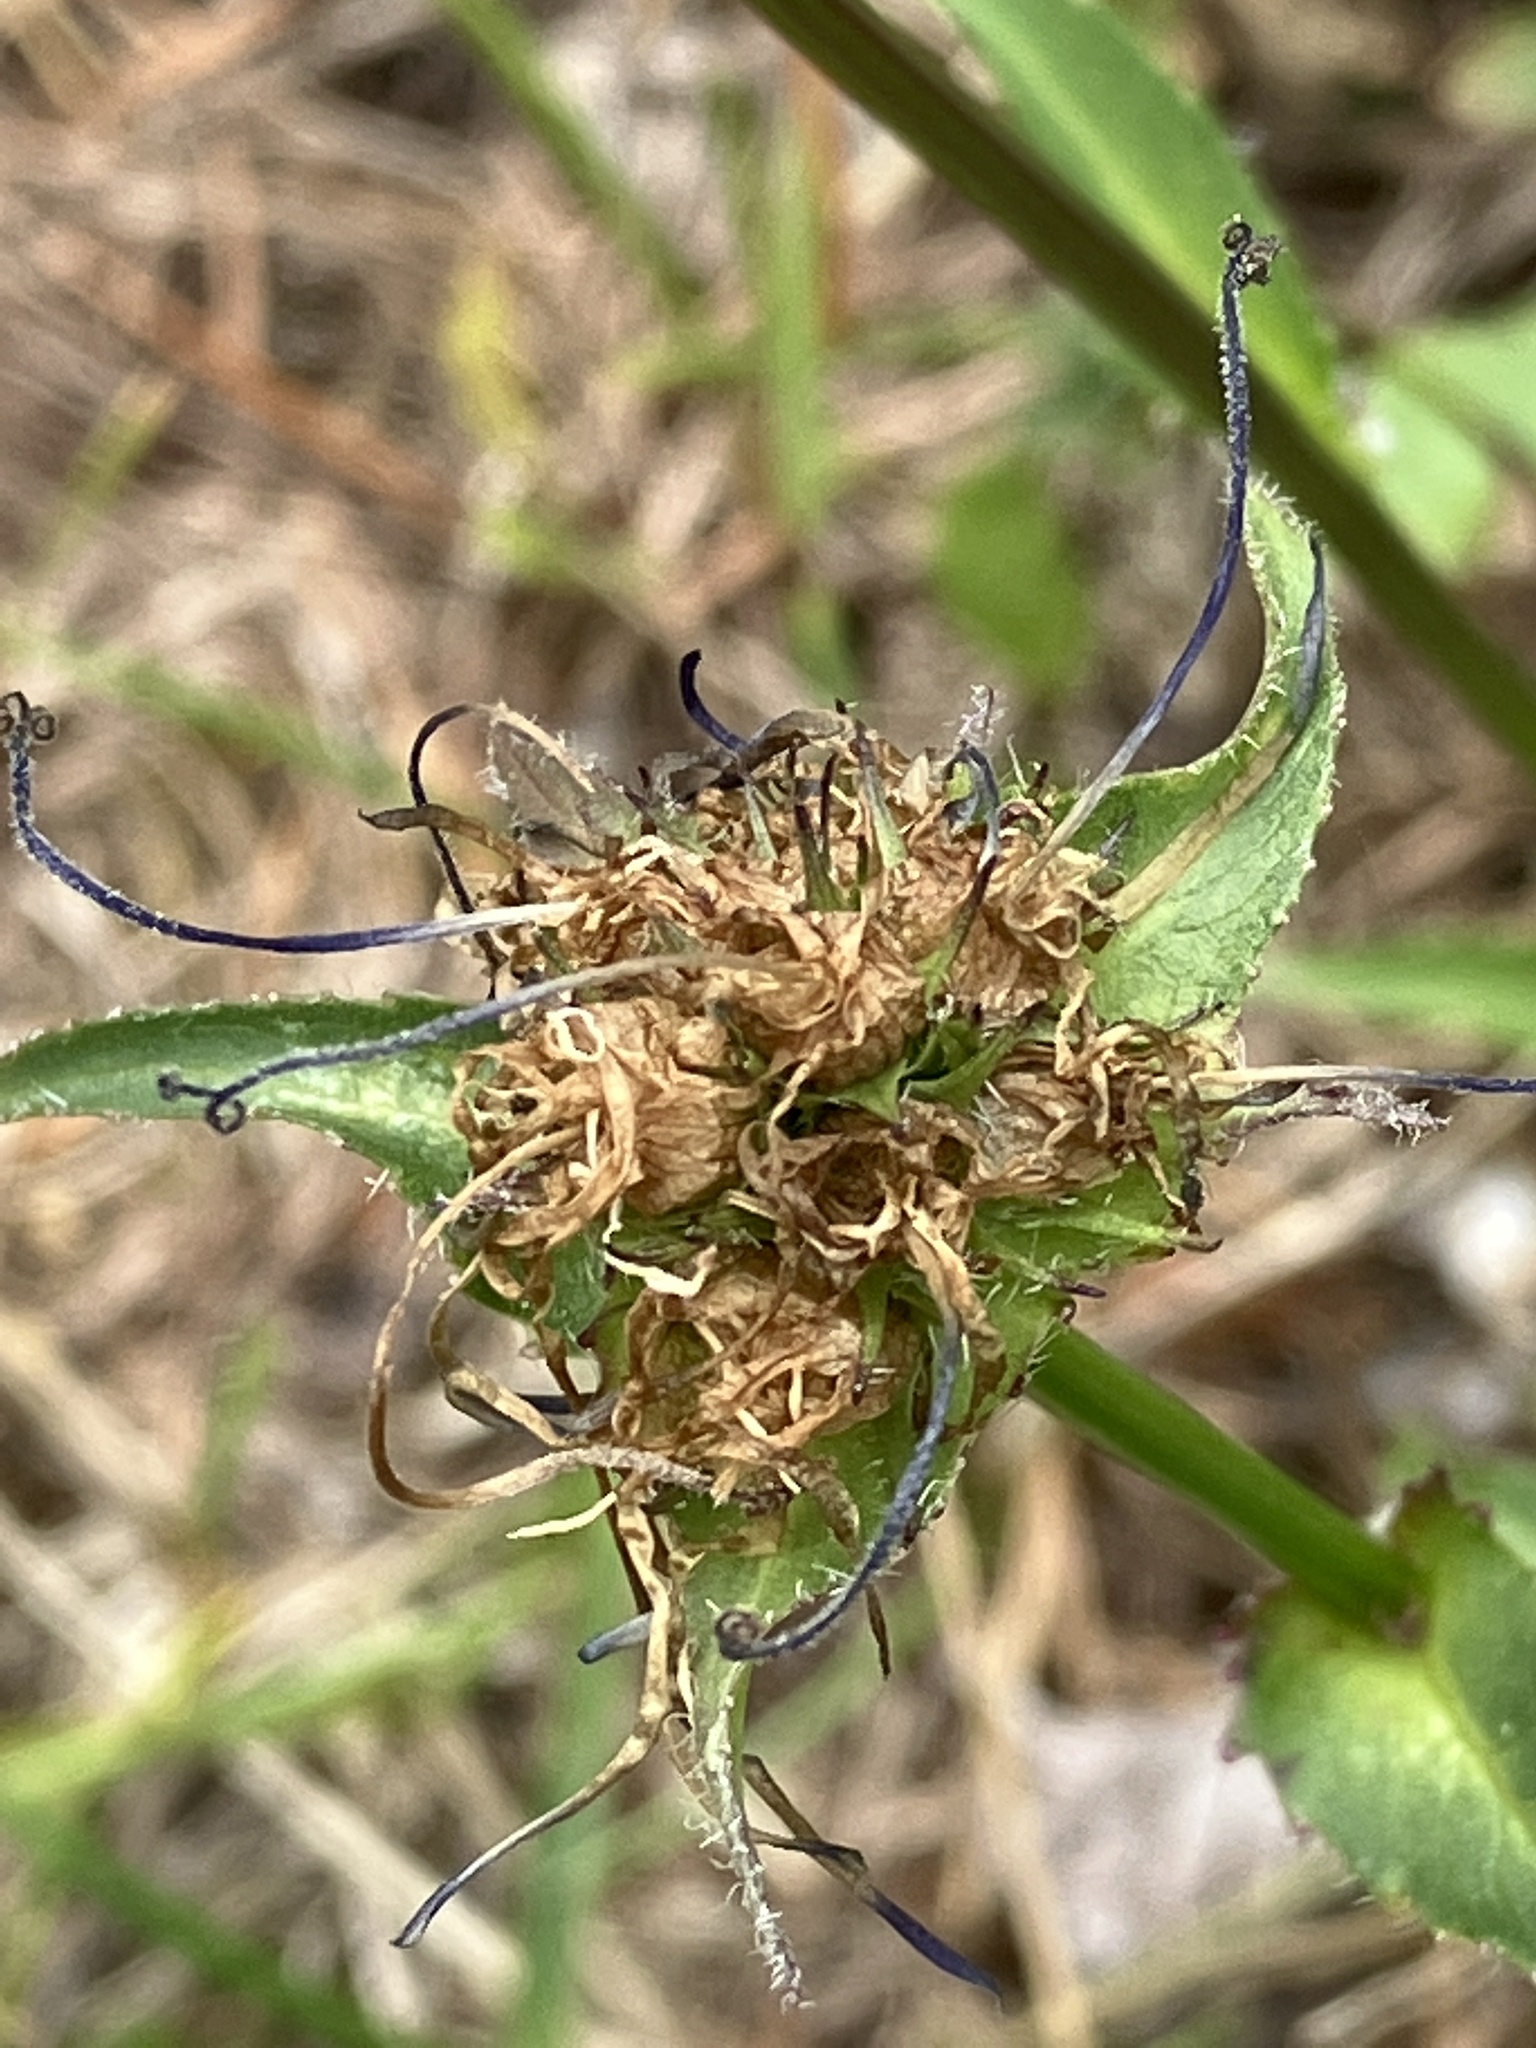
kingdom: Plantae
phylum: Tracheophyta
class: Magnoliopsida
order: Asterales
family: Campanulaceae
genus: Phyteuma
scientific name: Phyteuma orbiculare
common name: Round-headed rampion
